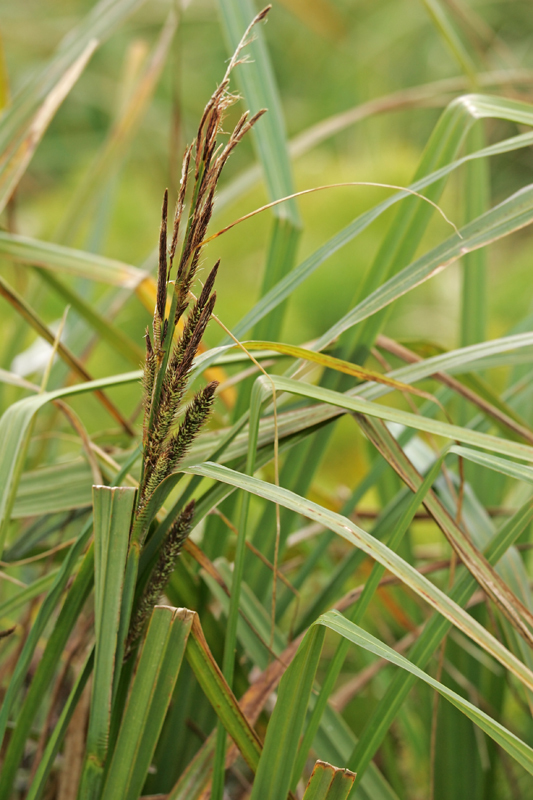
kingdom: Plantae
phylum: Tracheophyta
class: Liliopsida
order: Poales
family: Cyperaceae
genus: Carex
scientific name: Carex
